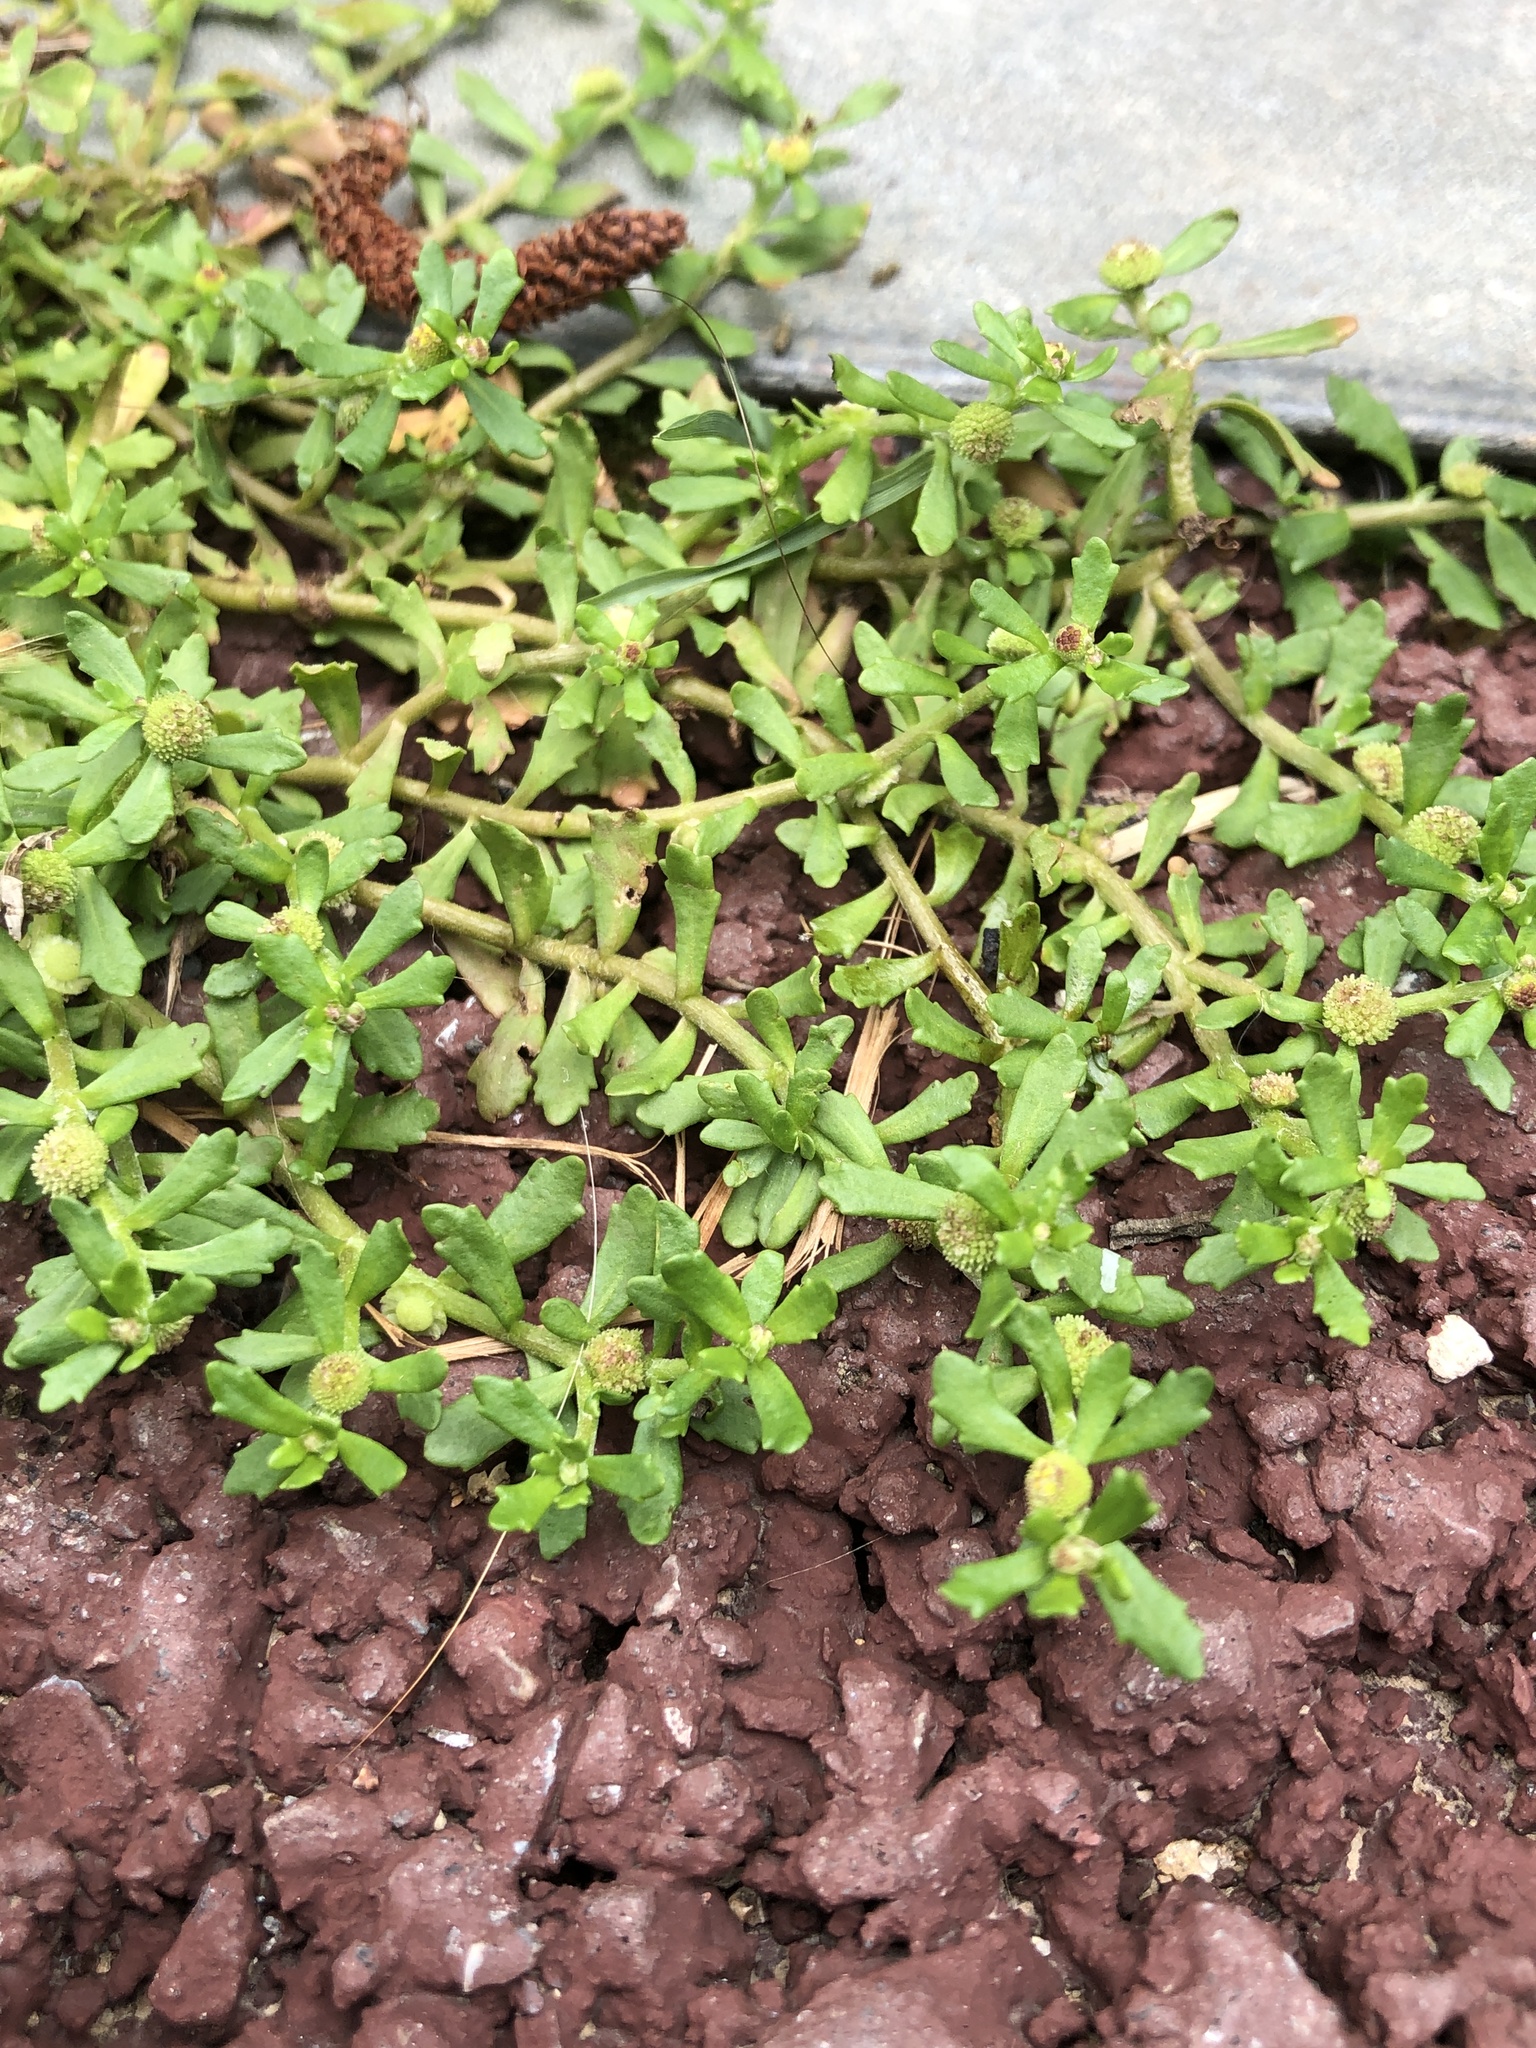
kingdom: Plantae
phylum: Tracheophyta
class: Magnoliopsida
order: Asterales
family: Asteraceae
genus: Centipeda
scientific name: Centipeda minima
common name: Spreading sneezeweed
